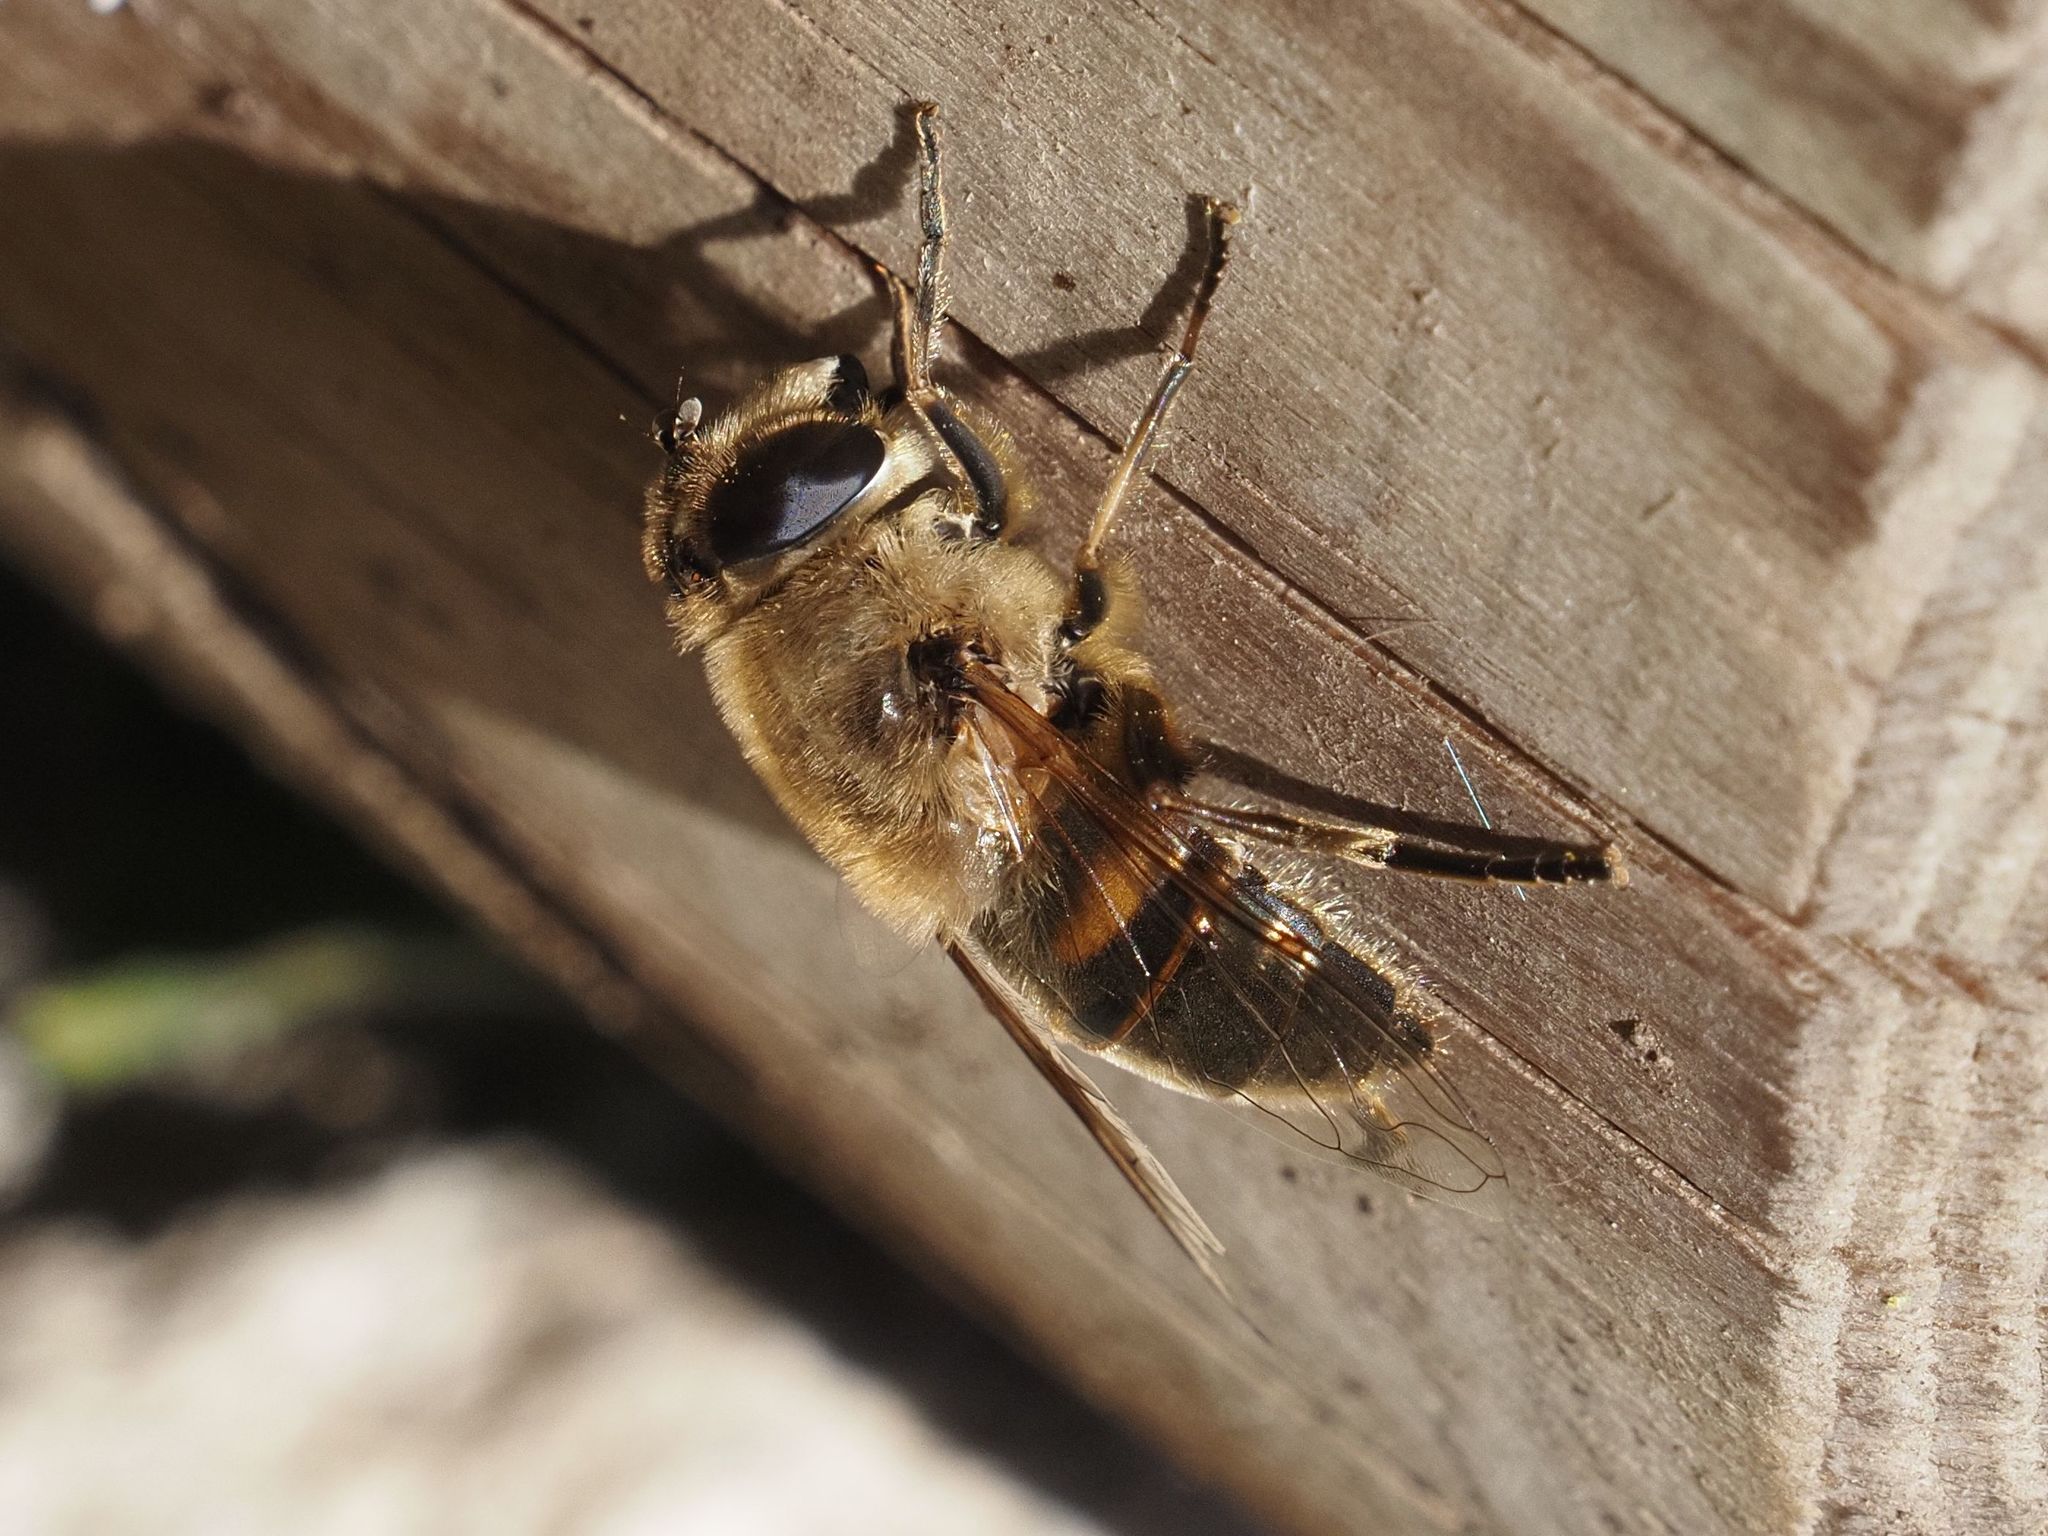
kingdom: Animalia
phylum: Arthropoda
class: Insecta
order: Diptera
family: Syrphidae
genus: Eristalis
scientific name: Eristalis tenax
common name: Drone fly
